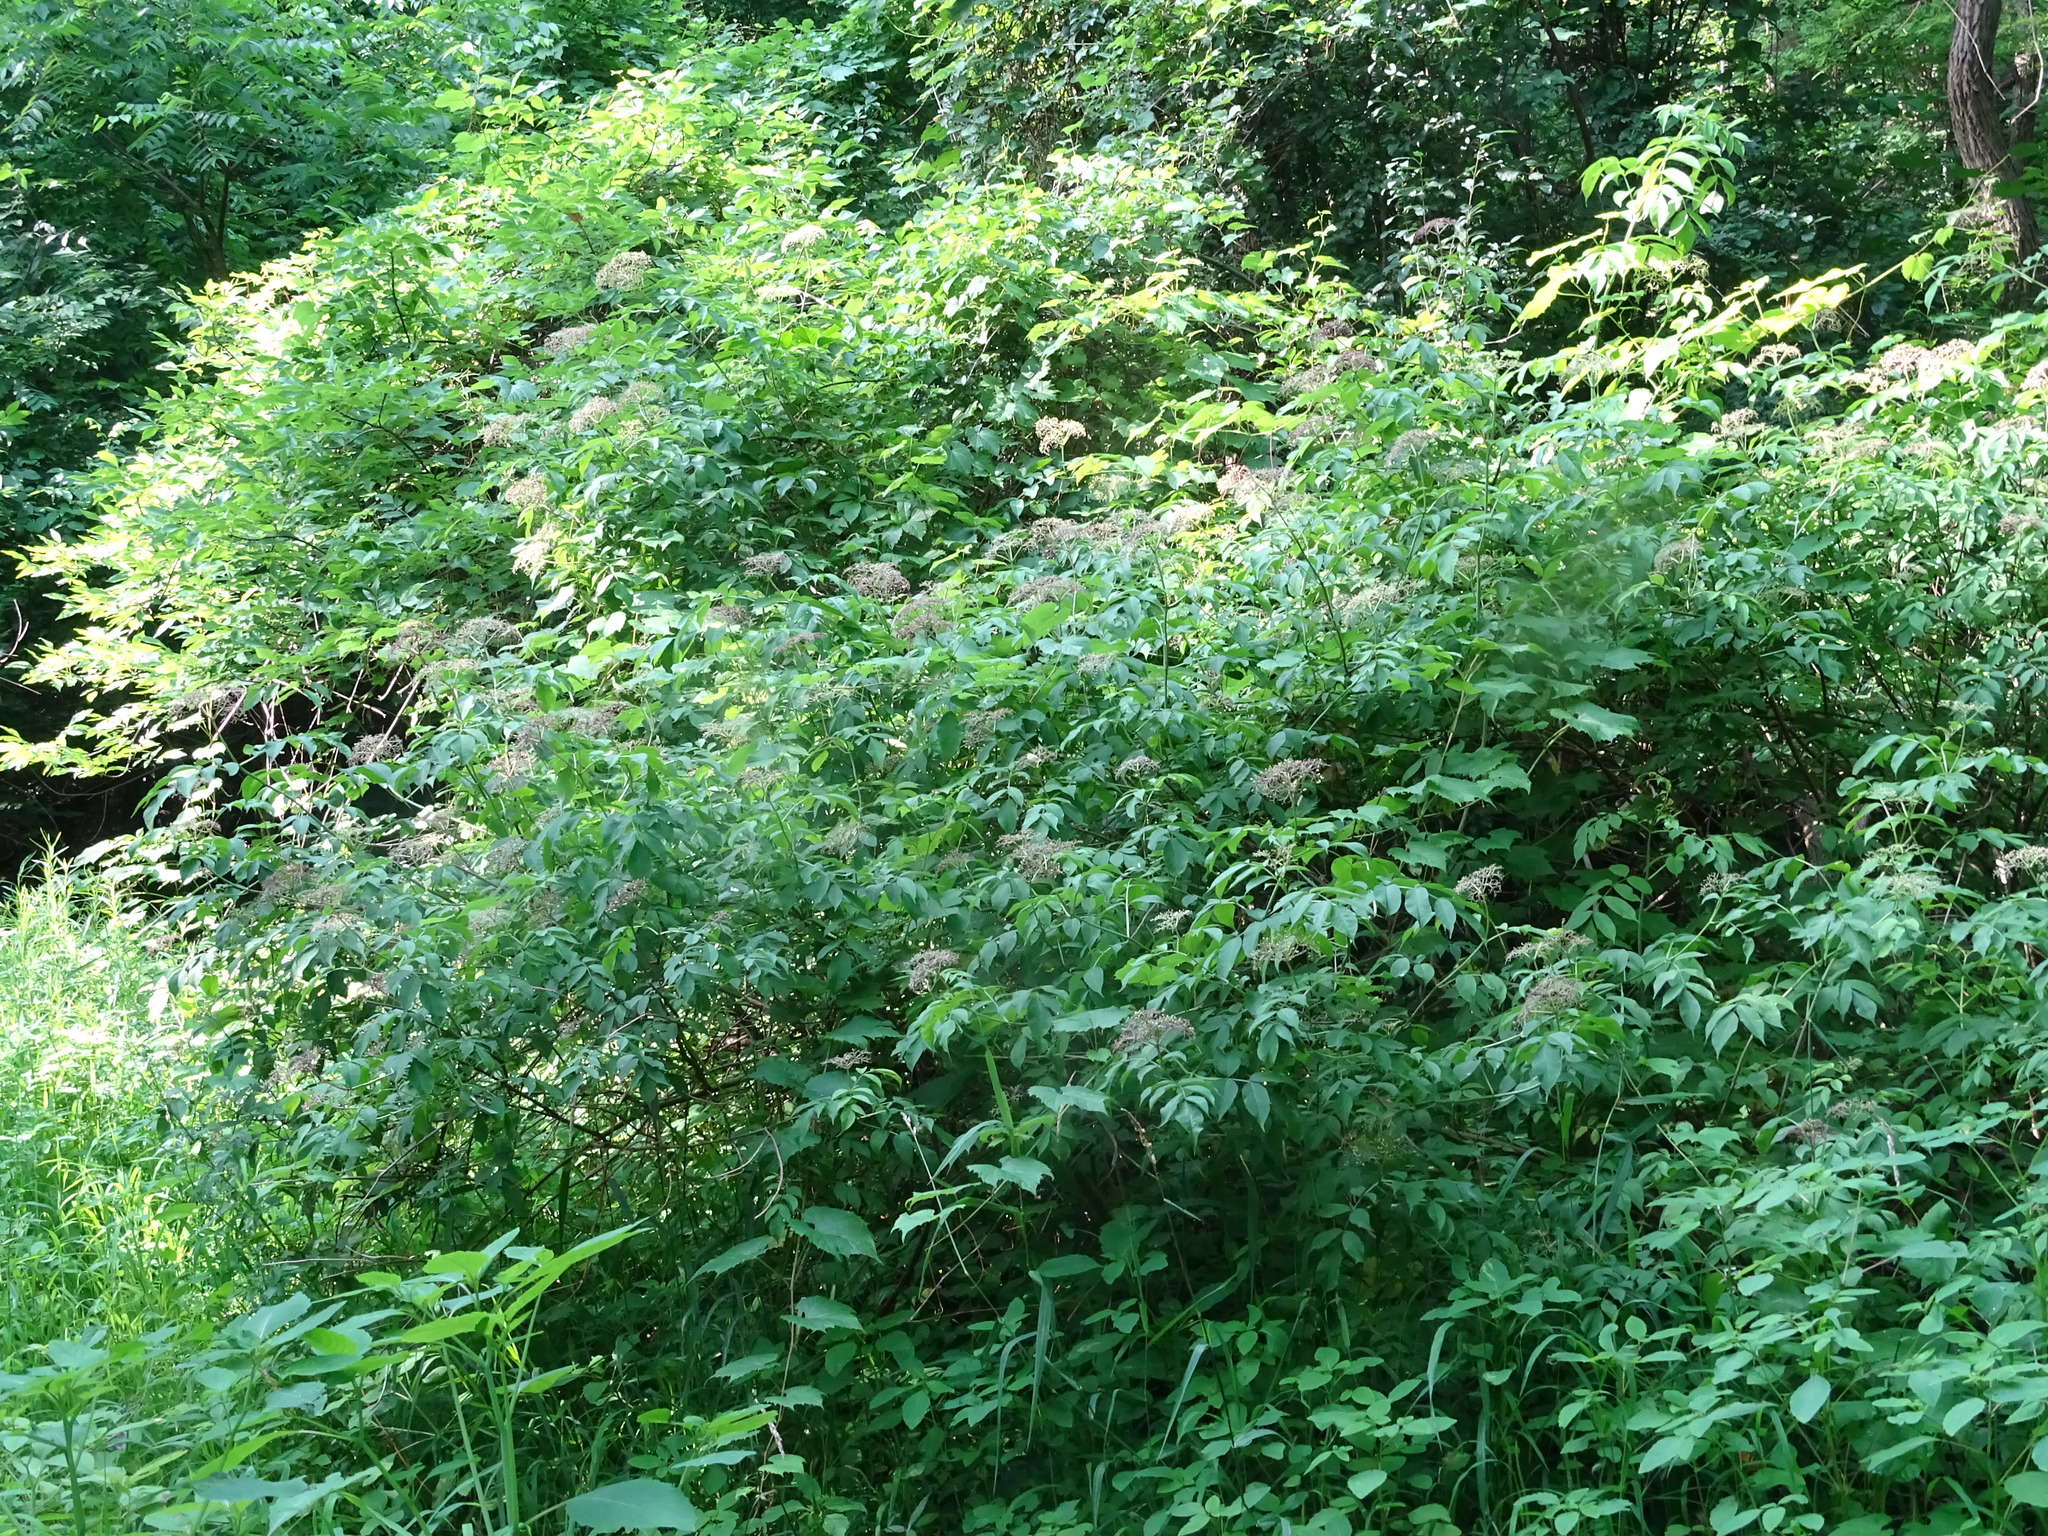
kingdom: Plantae
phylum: Tracheophyta
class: Magnoliopsida
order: Dipsacales
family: Viburnaceae
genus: Sambucus
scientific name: Sambucus canadensis
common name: American elder
